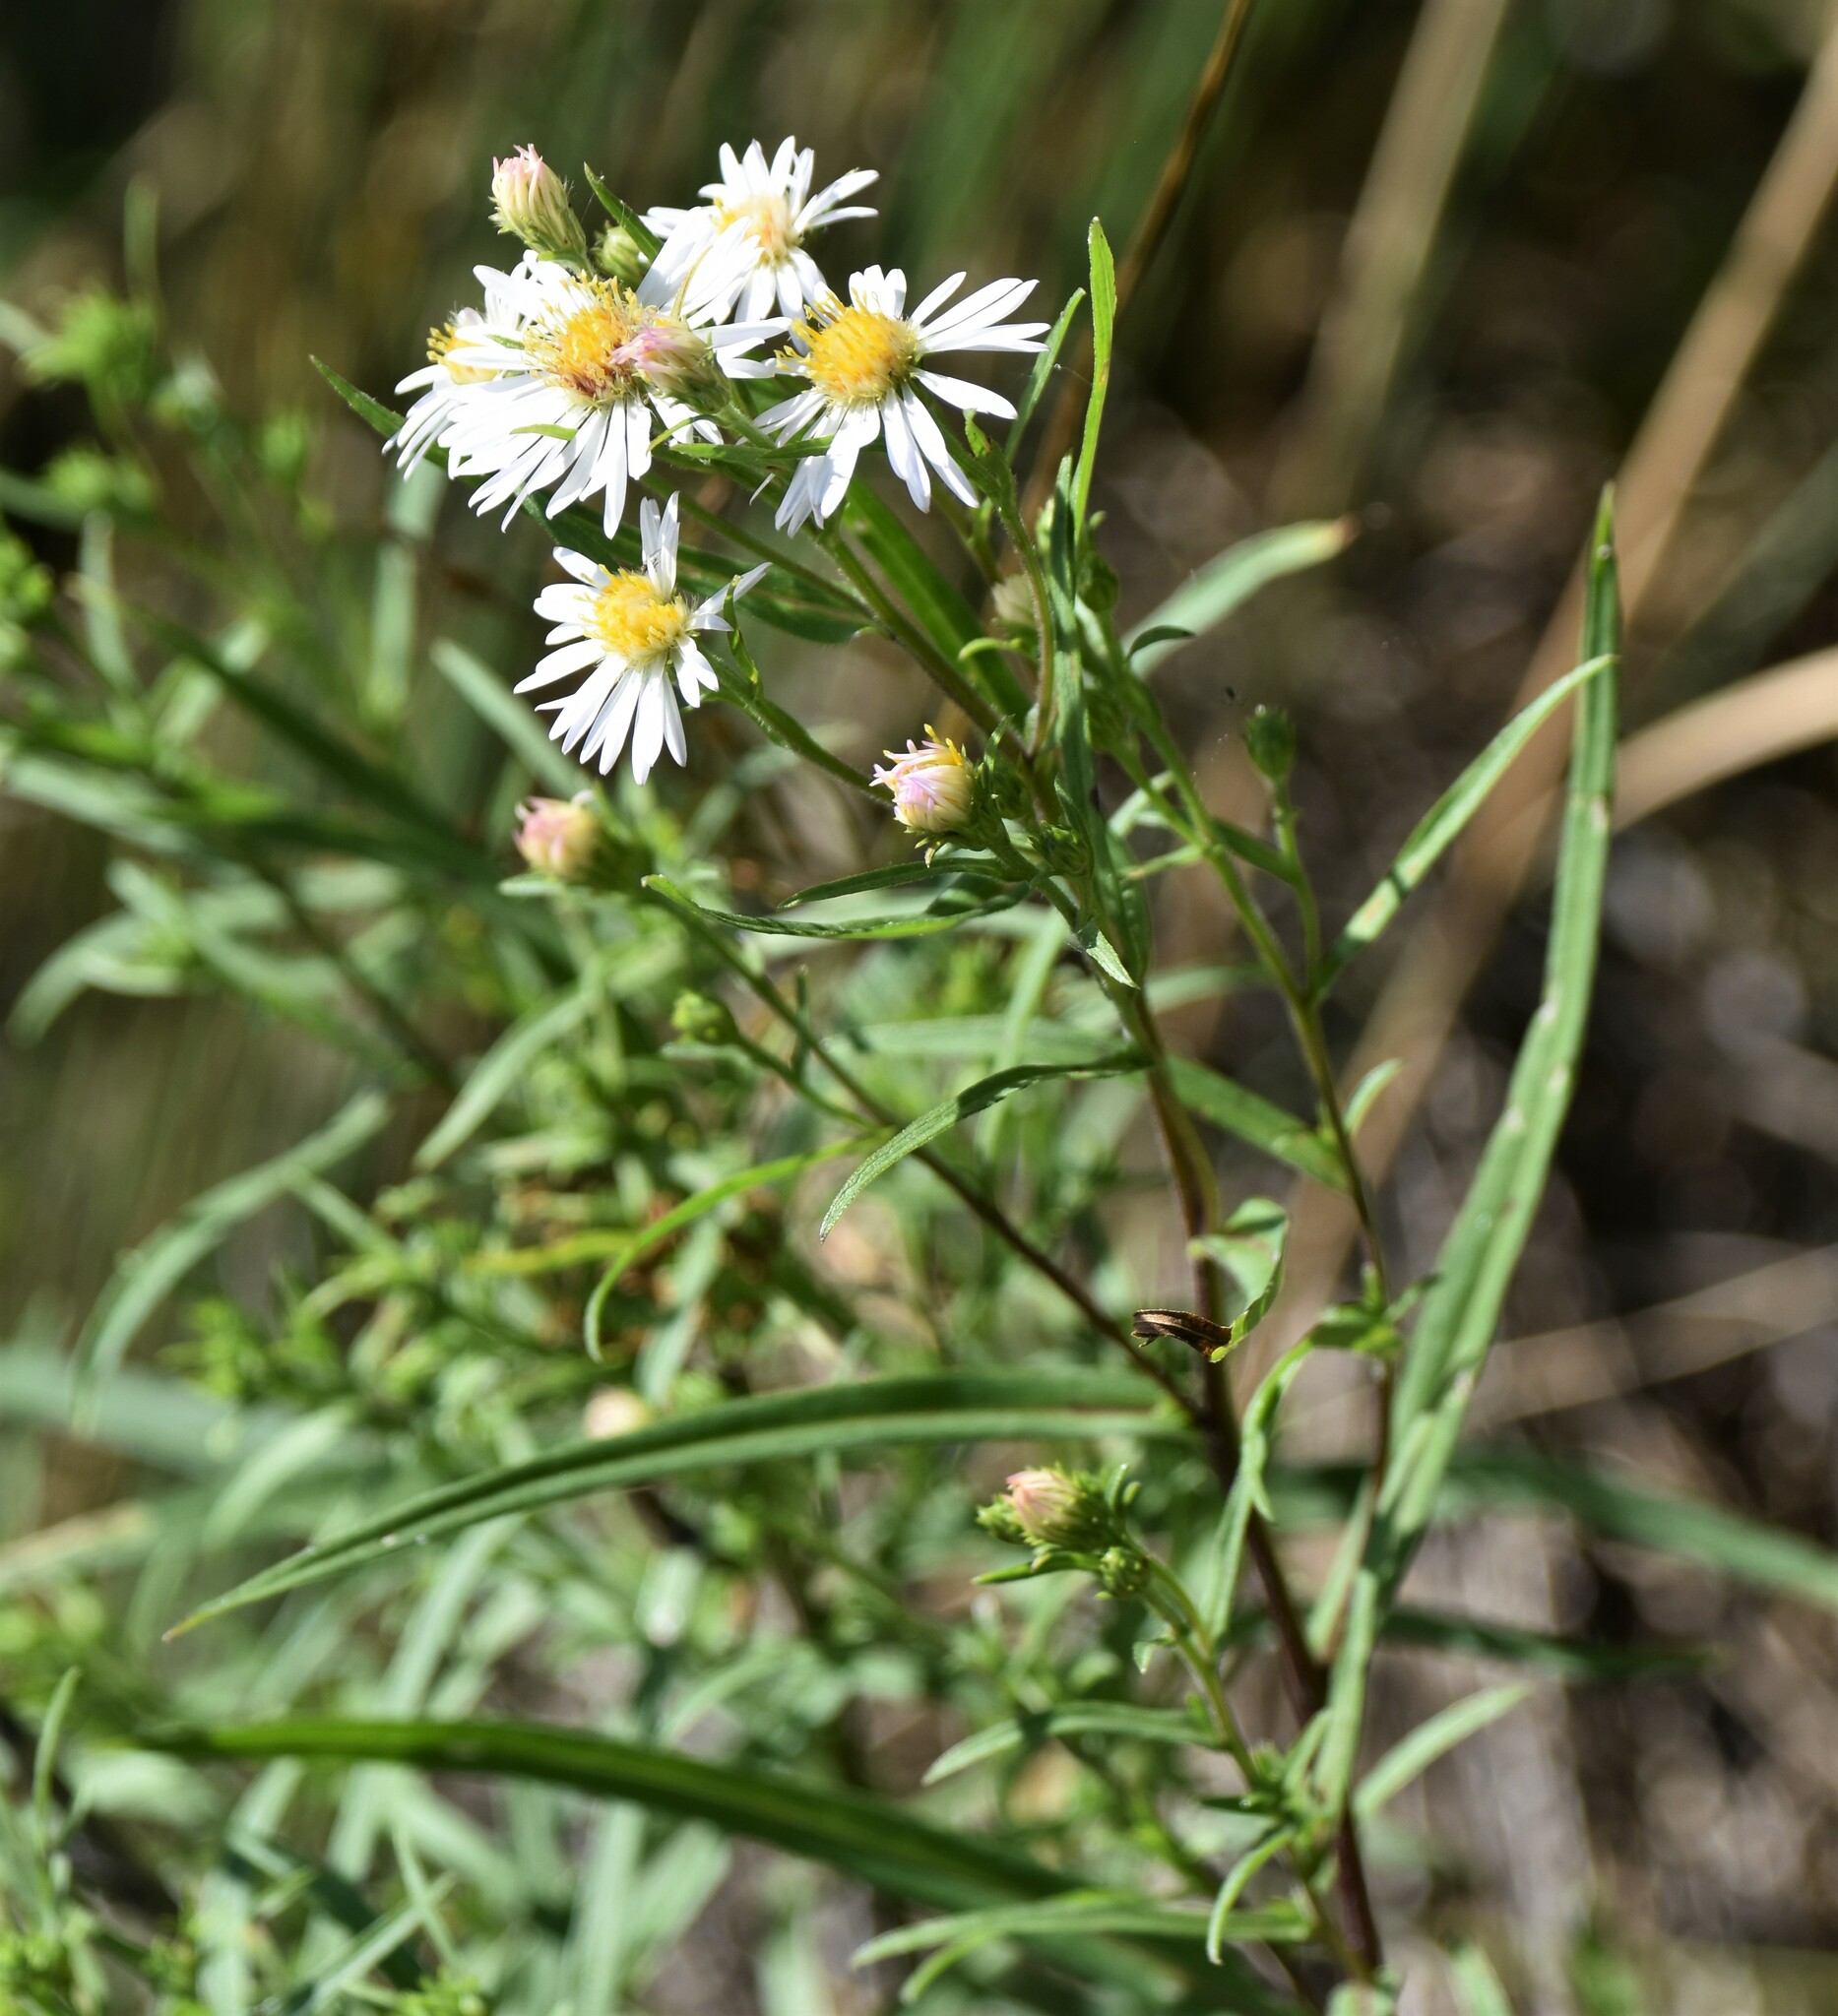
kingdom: Plantae
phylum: Tracheophyta
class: Magnoliopsida
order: Asterales
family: Asteraceae
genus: Symphyotrichum
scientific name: Symphyotrichum lanceolatum
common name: Panicled aster
